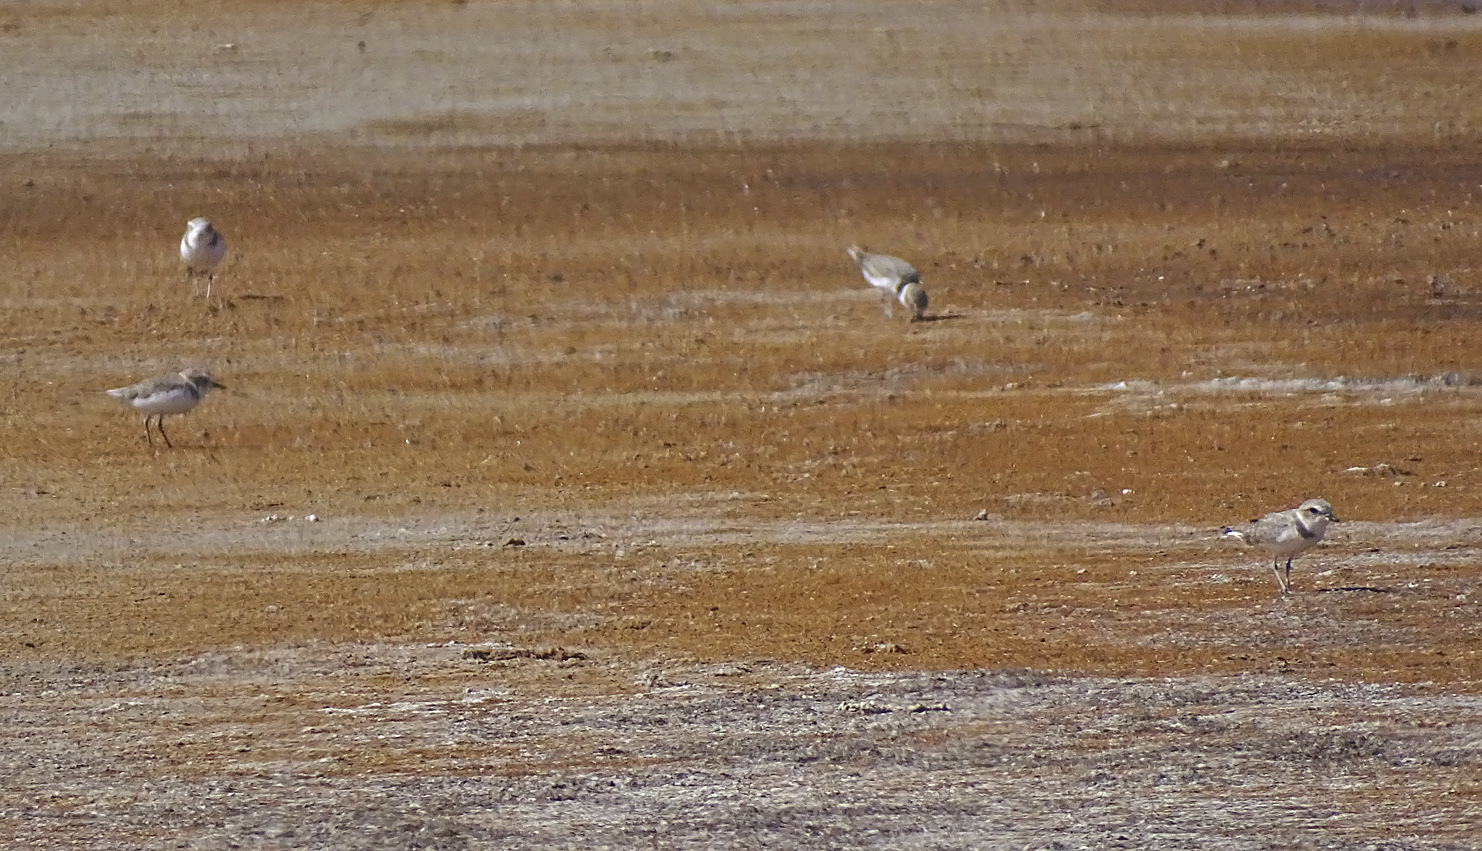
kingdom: Animalia
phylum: Chordata
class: Aves
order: Charadriiformes
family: Charadriidae
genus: Anarhynchus
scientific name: Anarhynchus
